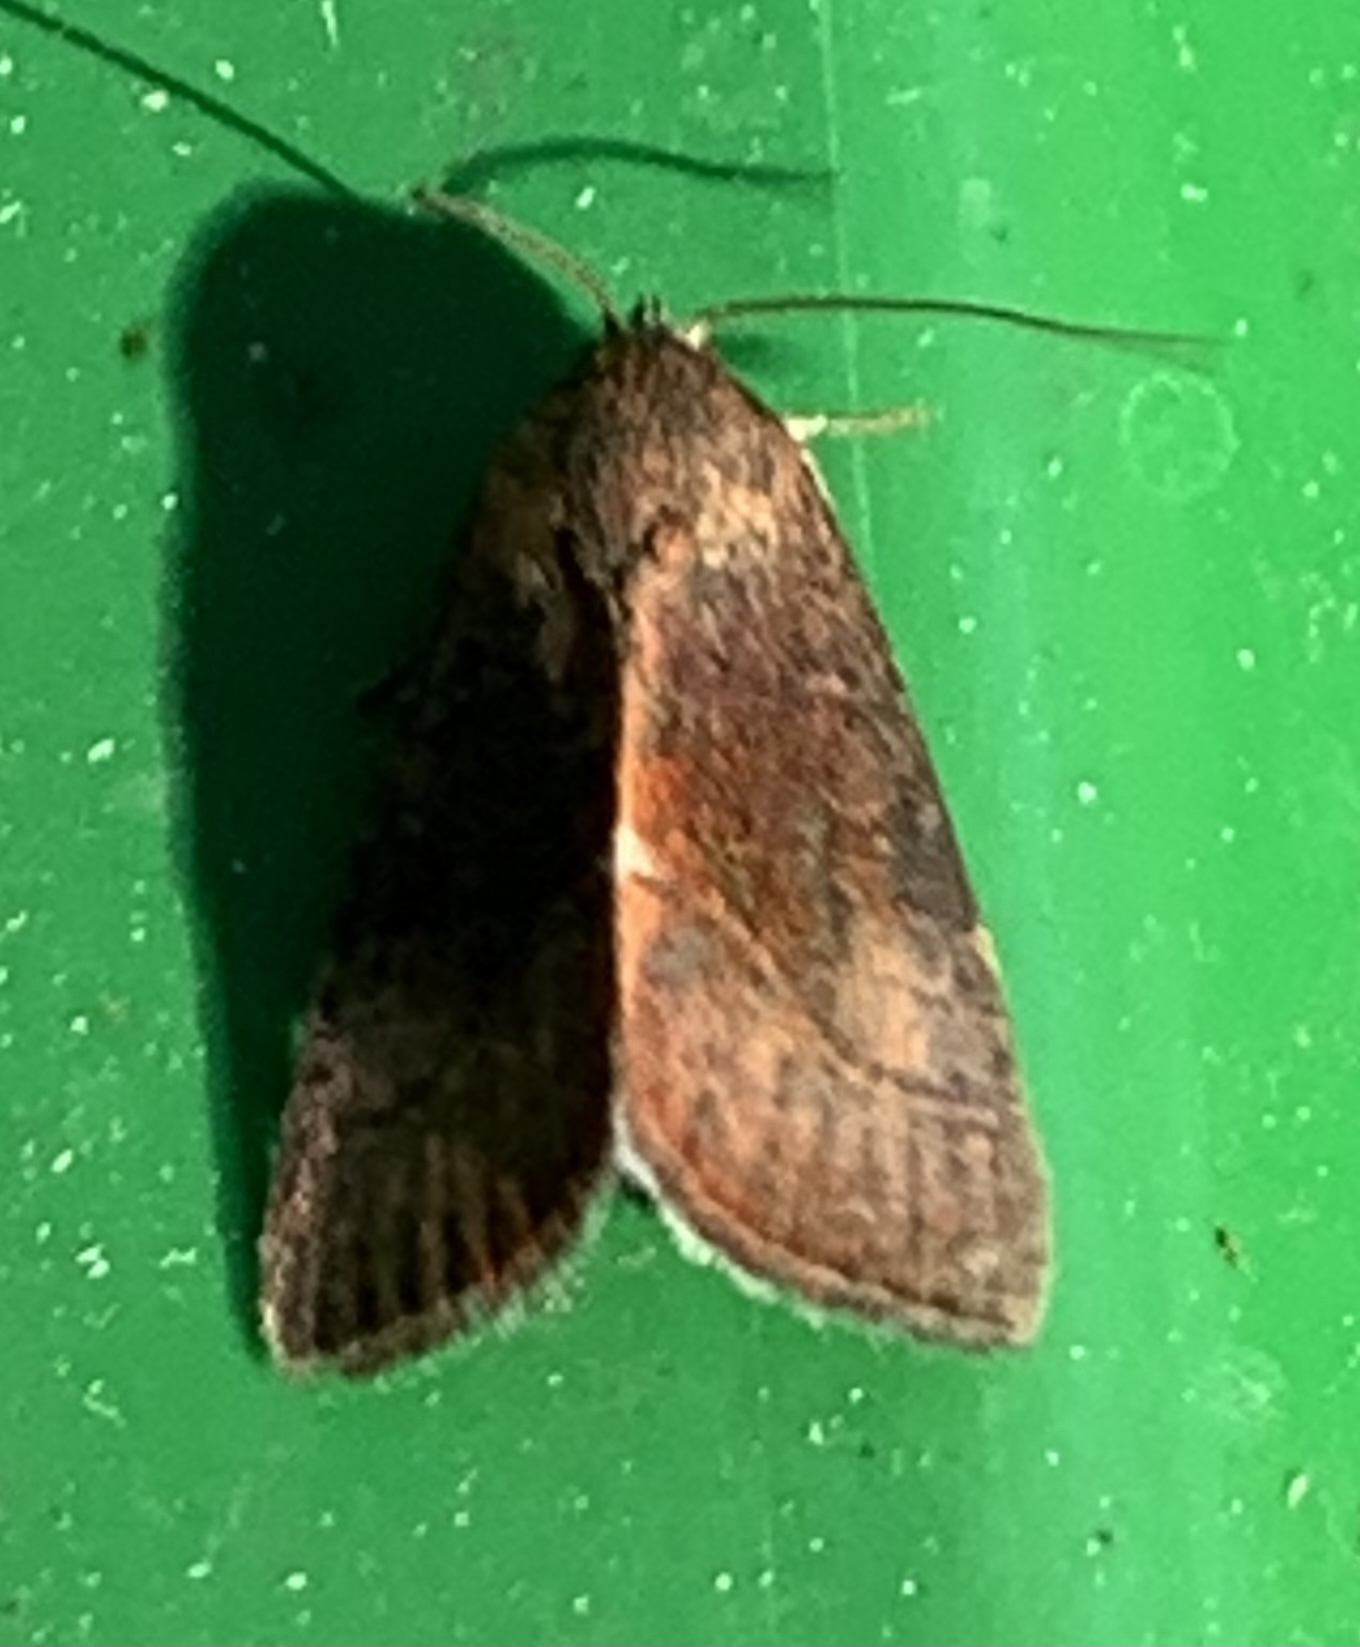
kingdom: Animalia
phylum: Arthropoda
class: Insecta
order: Lepidoptera
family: Noctuidae
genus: Galgula
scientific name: Galgula partita
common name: Wedgeling
